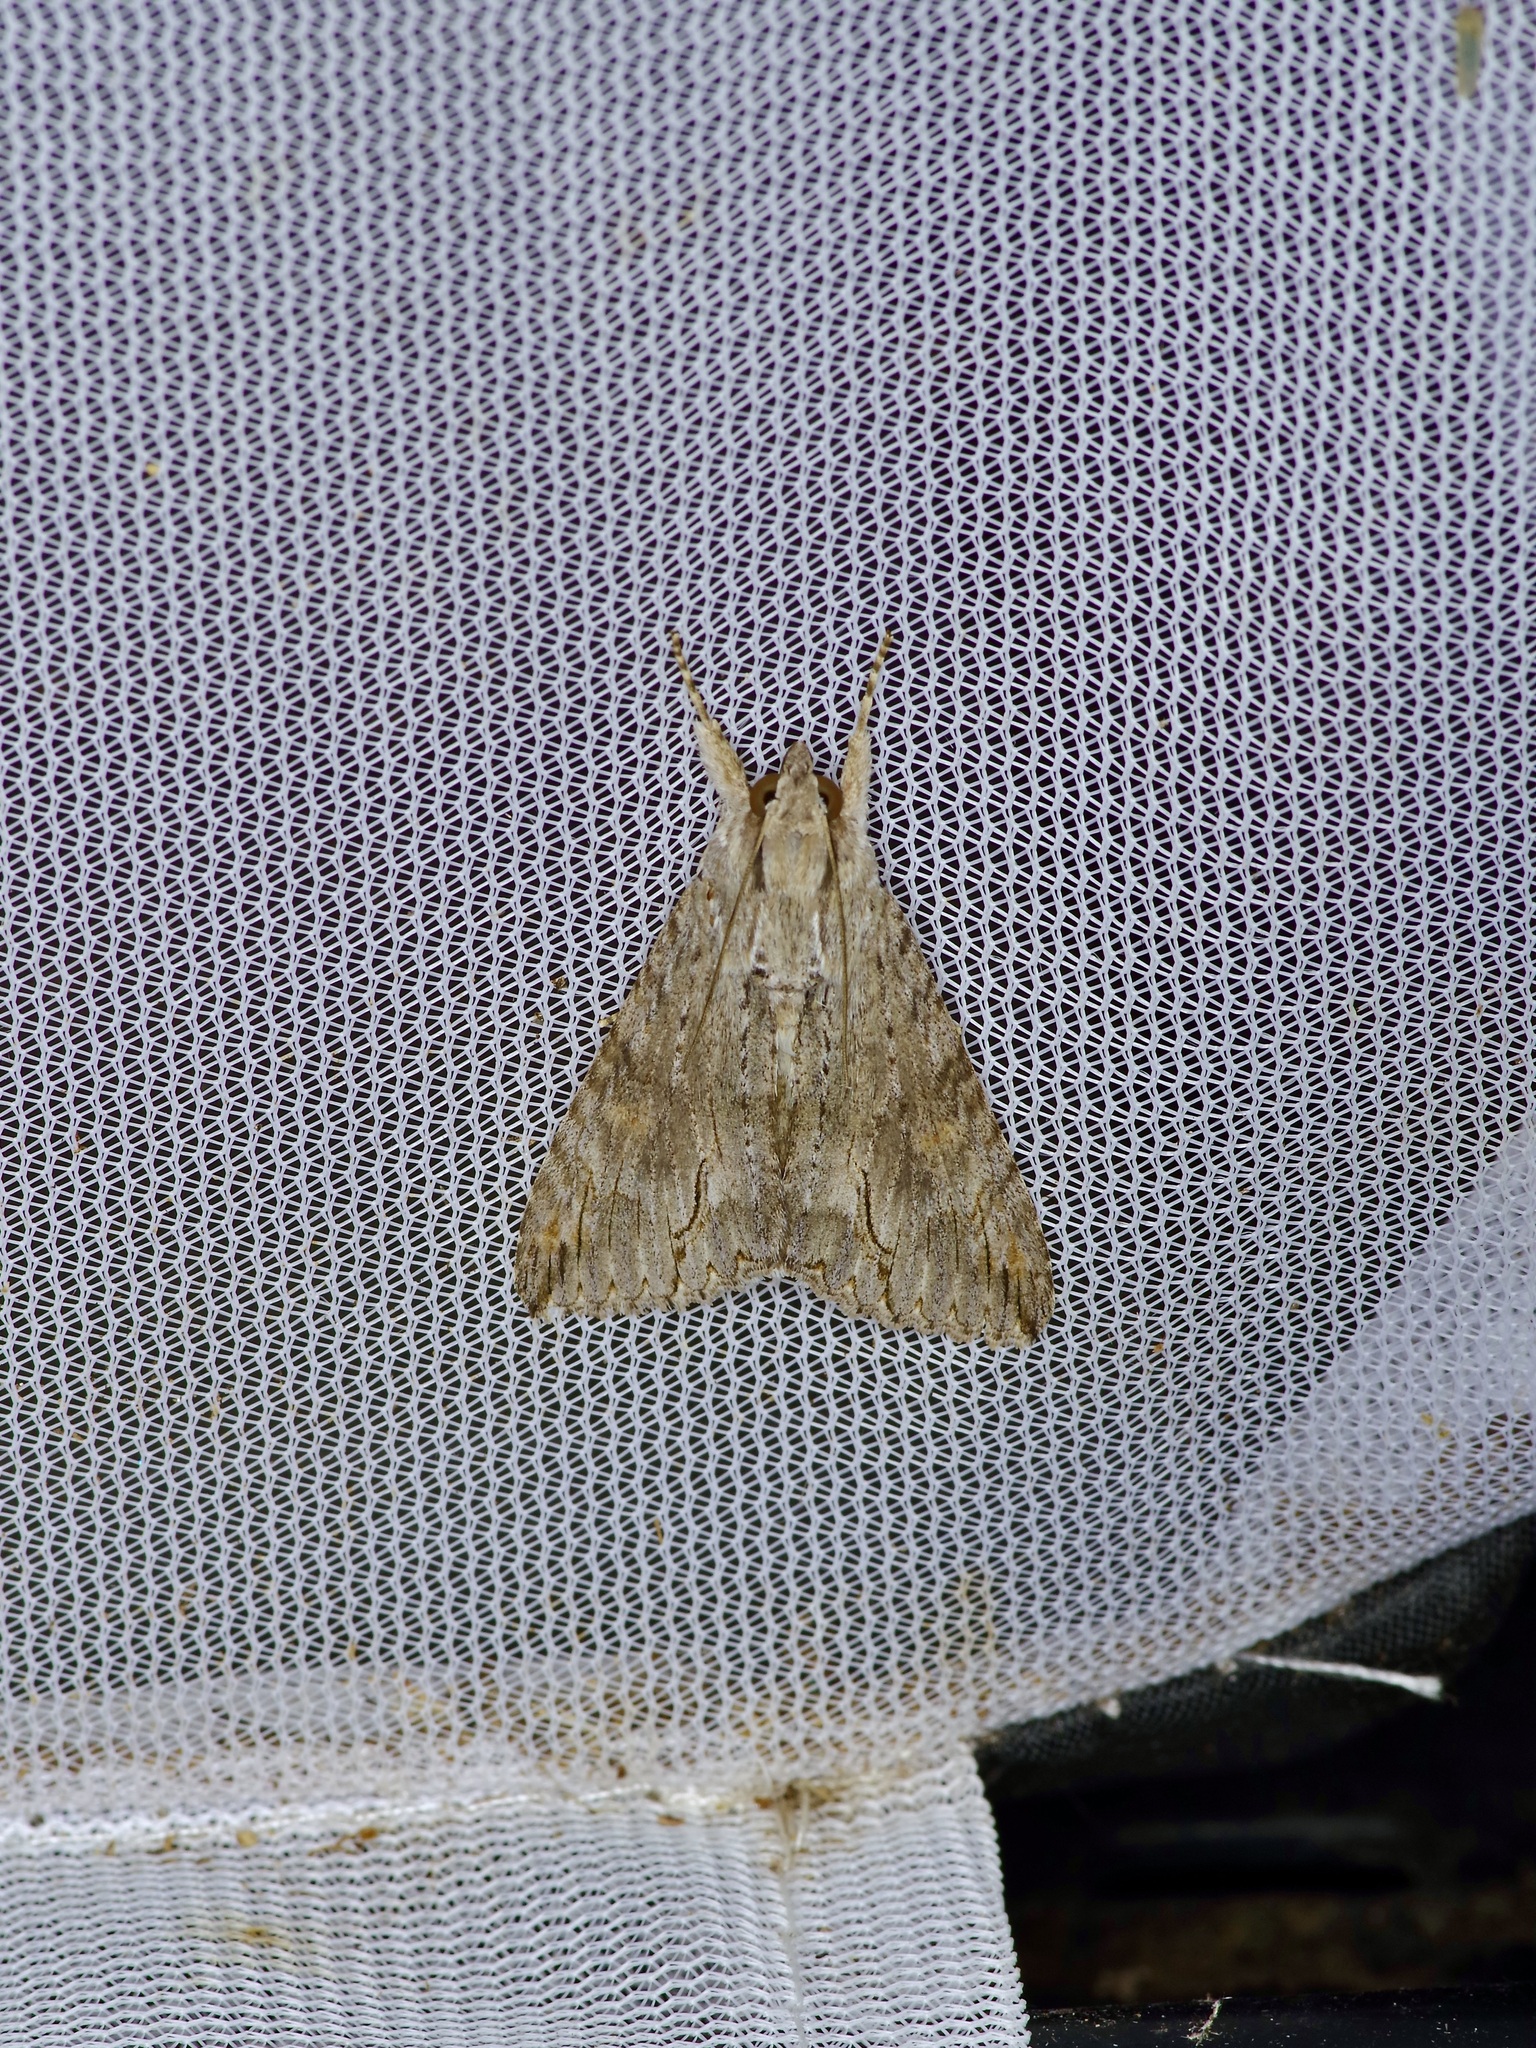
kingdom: Animalia
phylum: Arthropoda
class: Insecta
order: Lepidoptera
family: Erebidae
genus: Melipotis
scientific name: Melipotis acontioides
